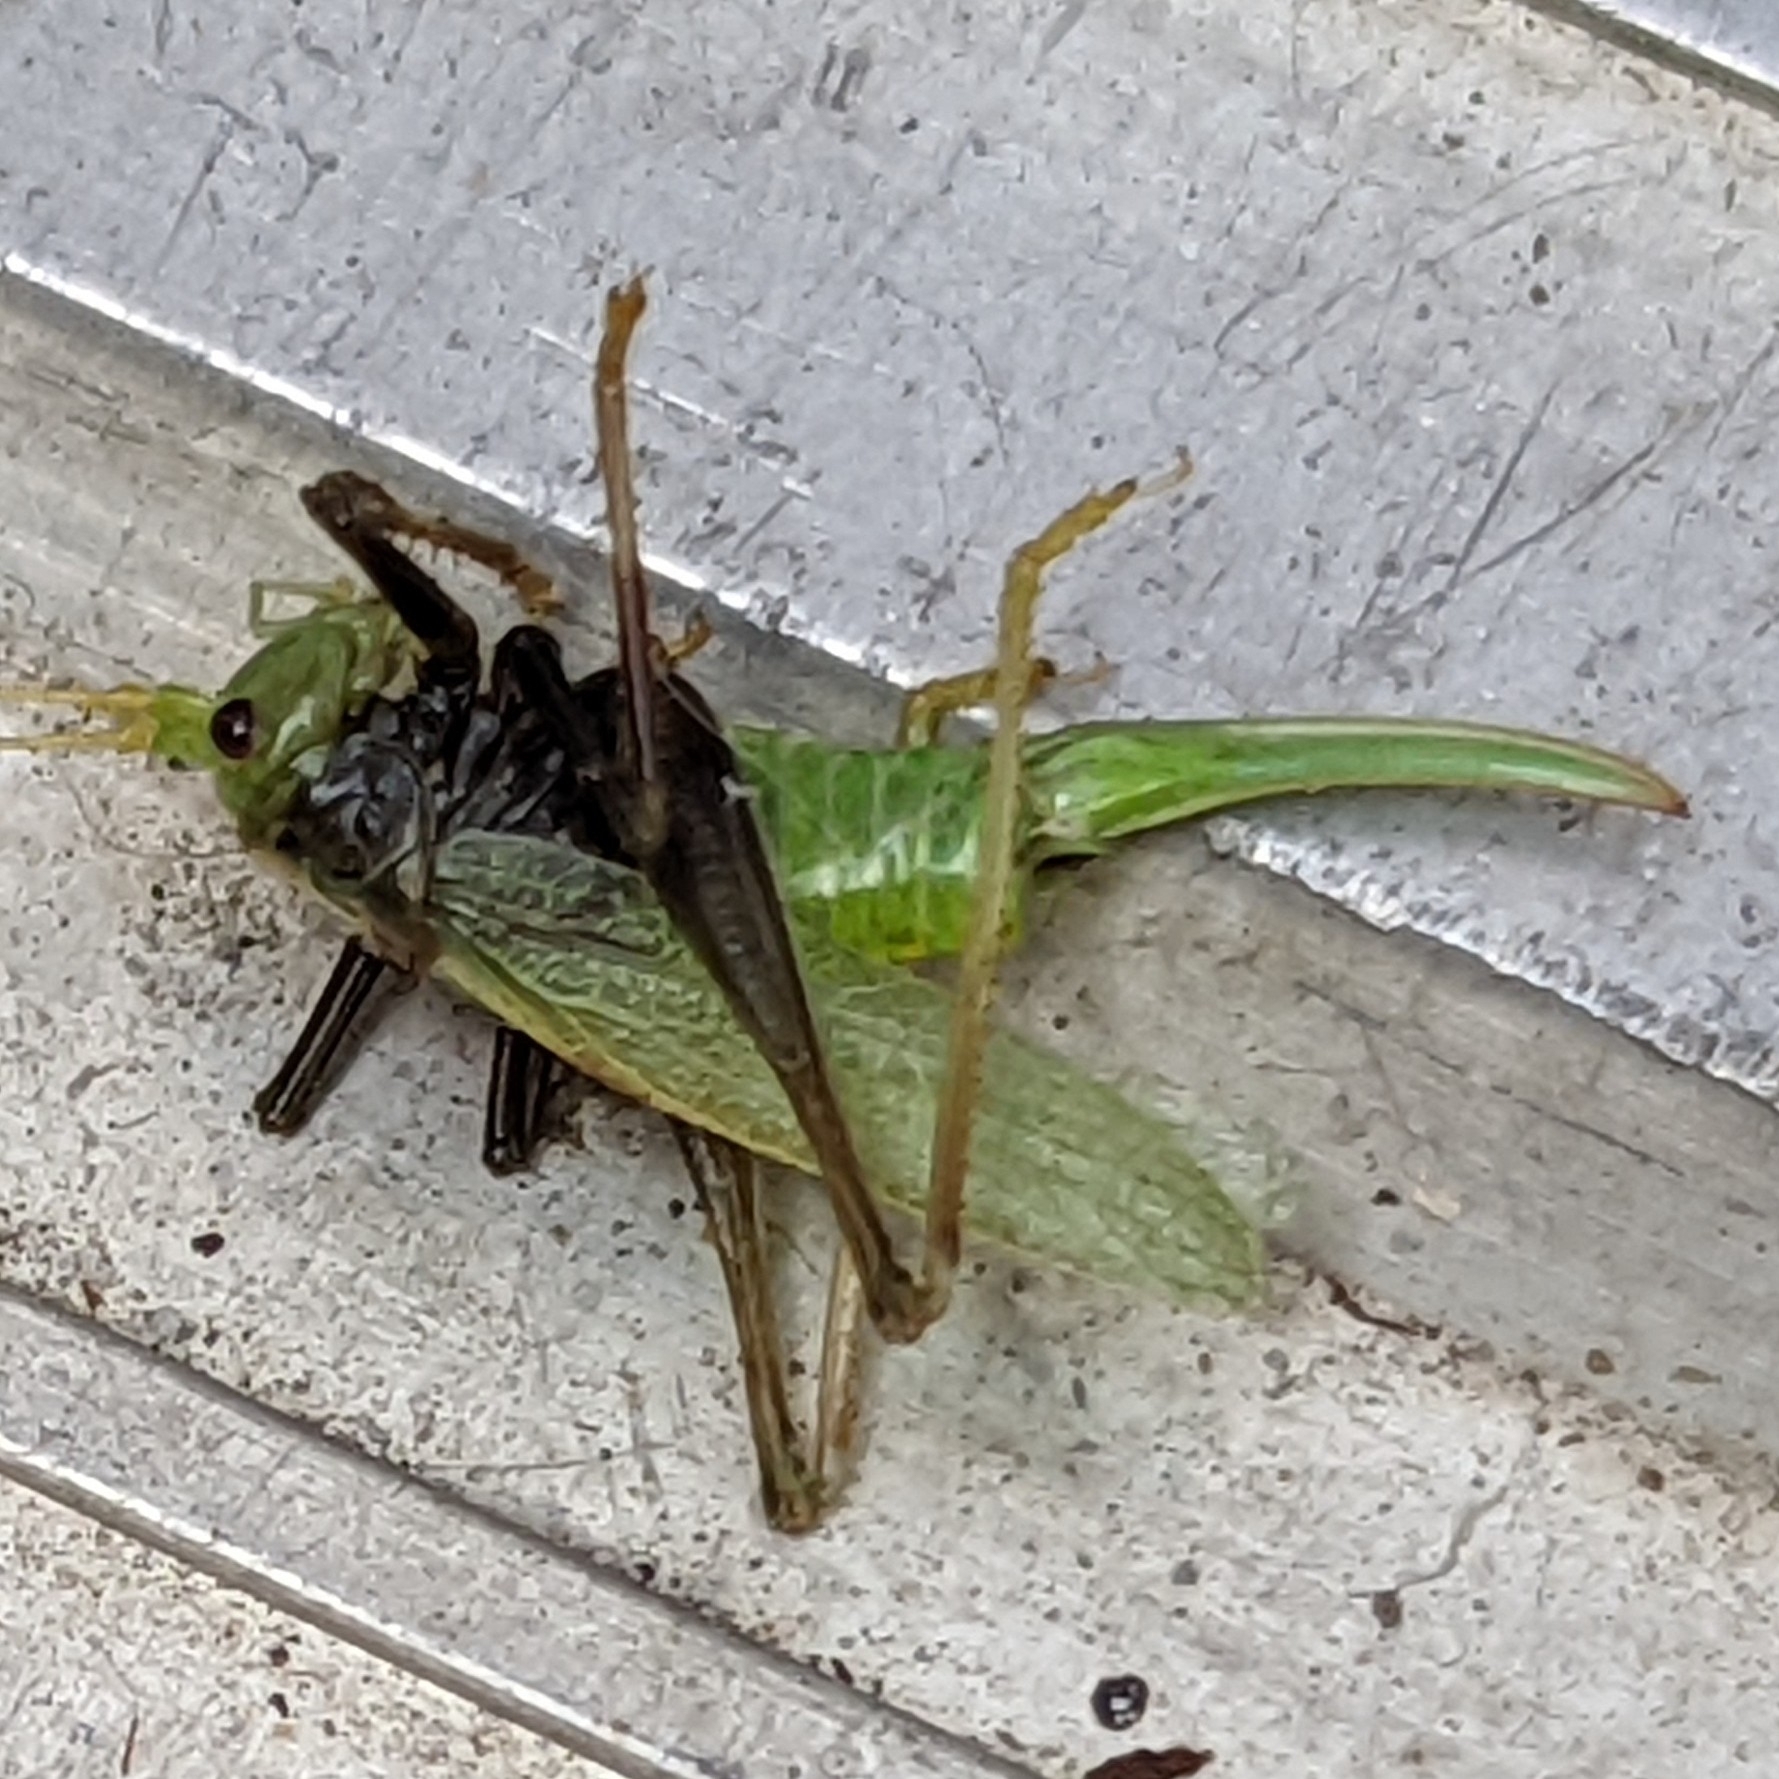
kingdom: Animalia
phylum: Arthropoda
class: Insecta
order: Orthoptera
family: Tettigoniidae
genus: Meconema
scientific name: Meconema thalassinum
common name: Oak bush-cricket
